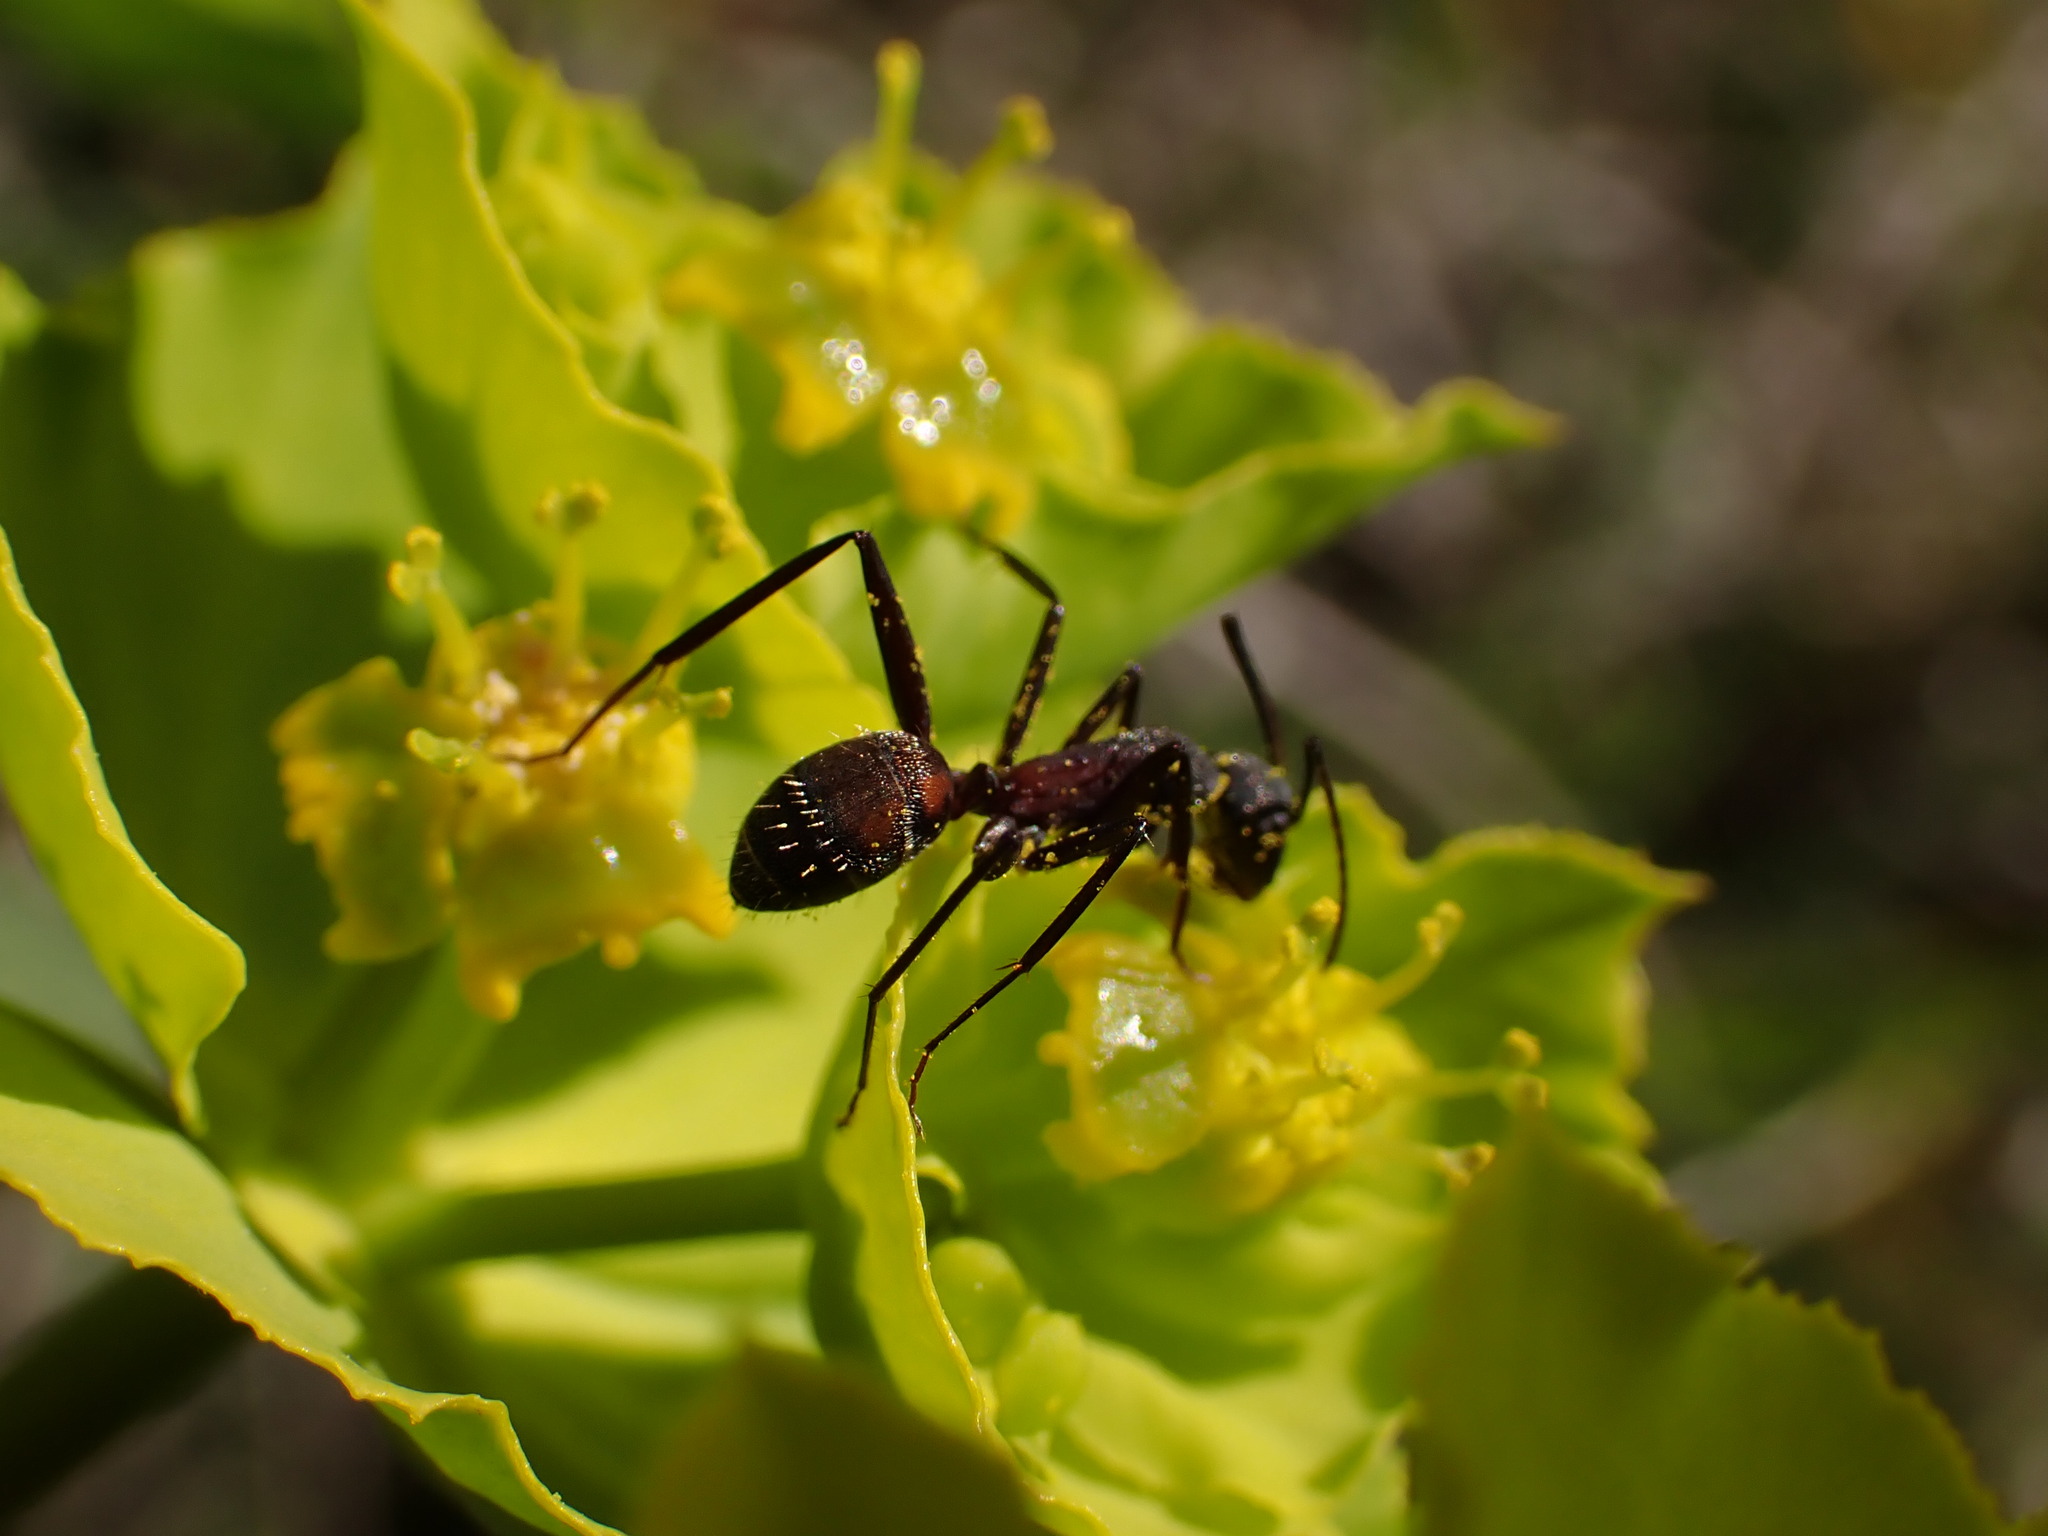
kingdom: Animalia
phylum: Arthropoda
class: Insecta
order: Hymenoptera
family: Formicidae
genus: Camponotus
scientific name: Camponotus cruentatus
